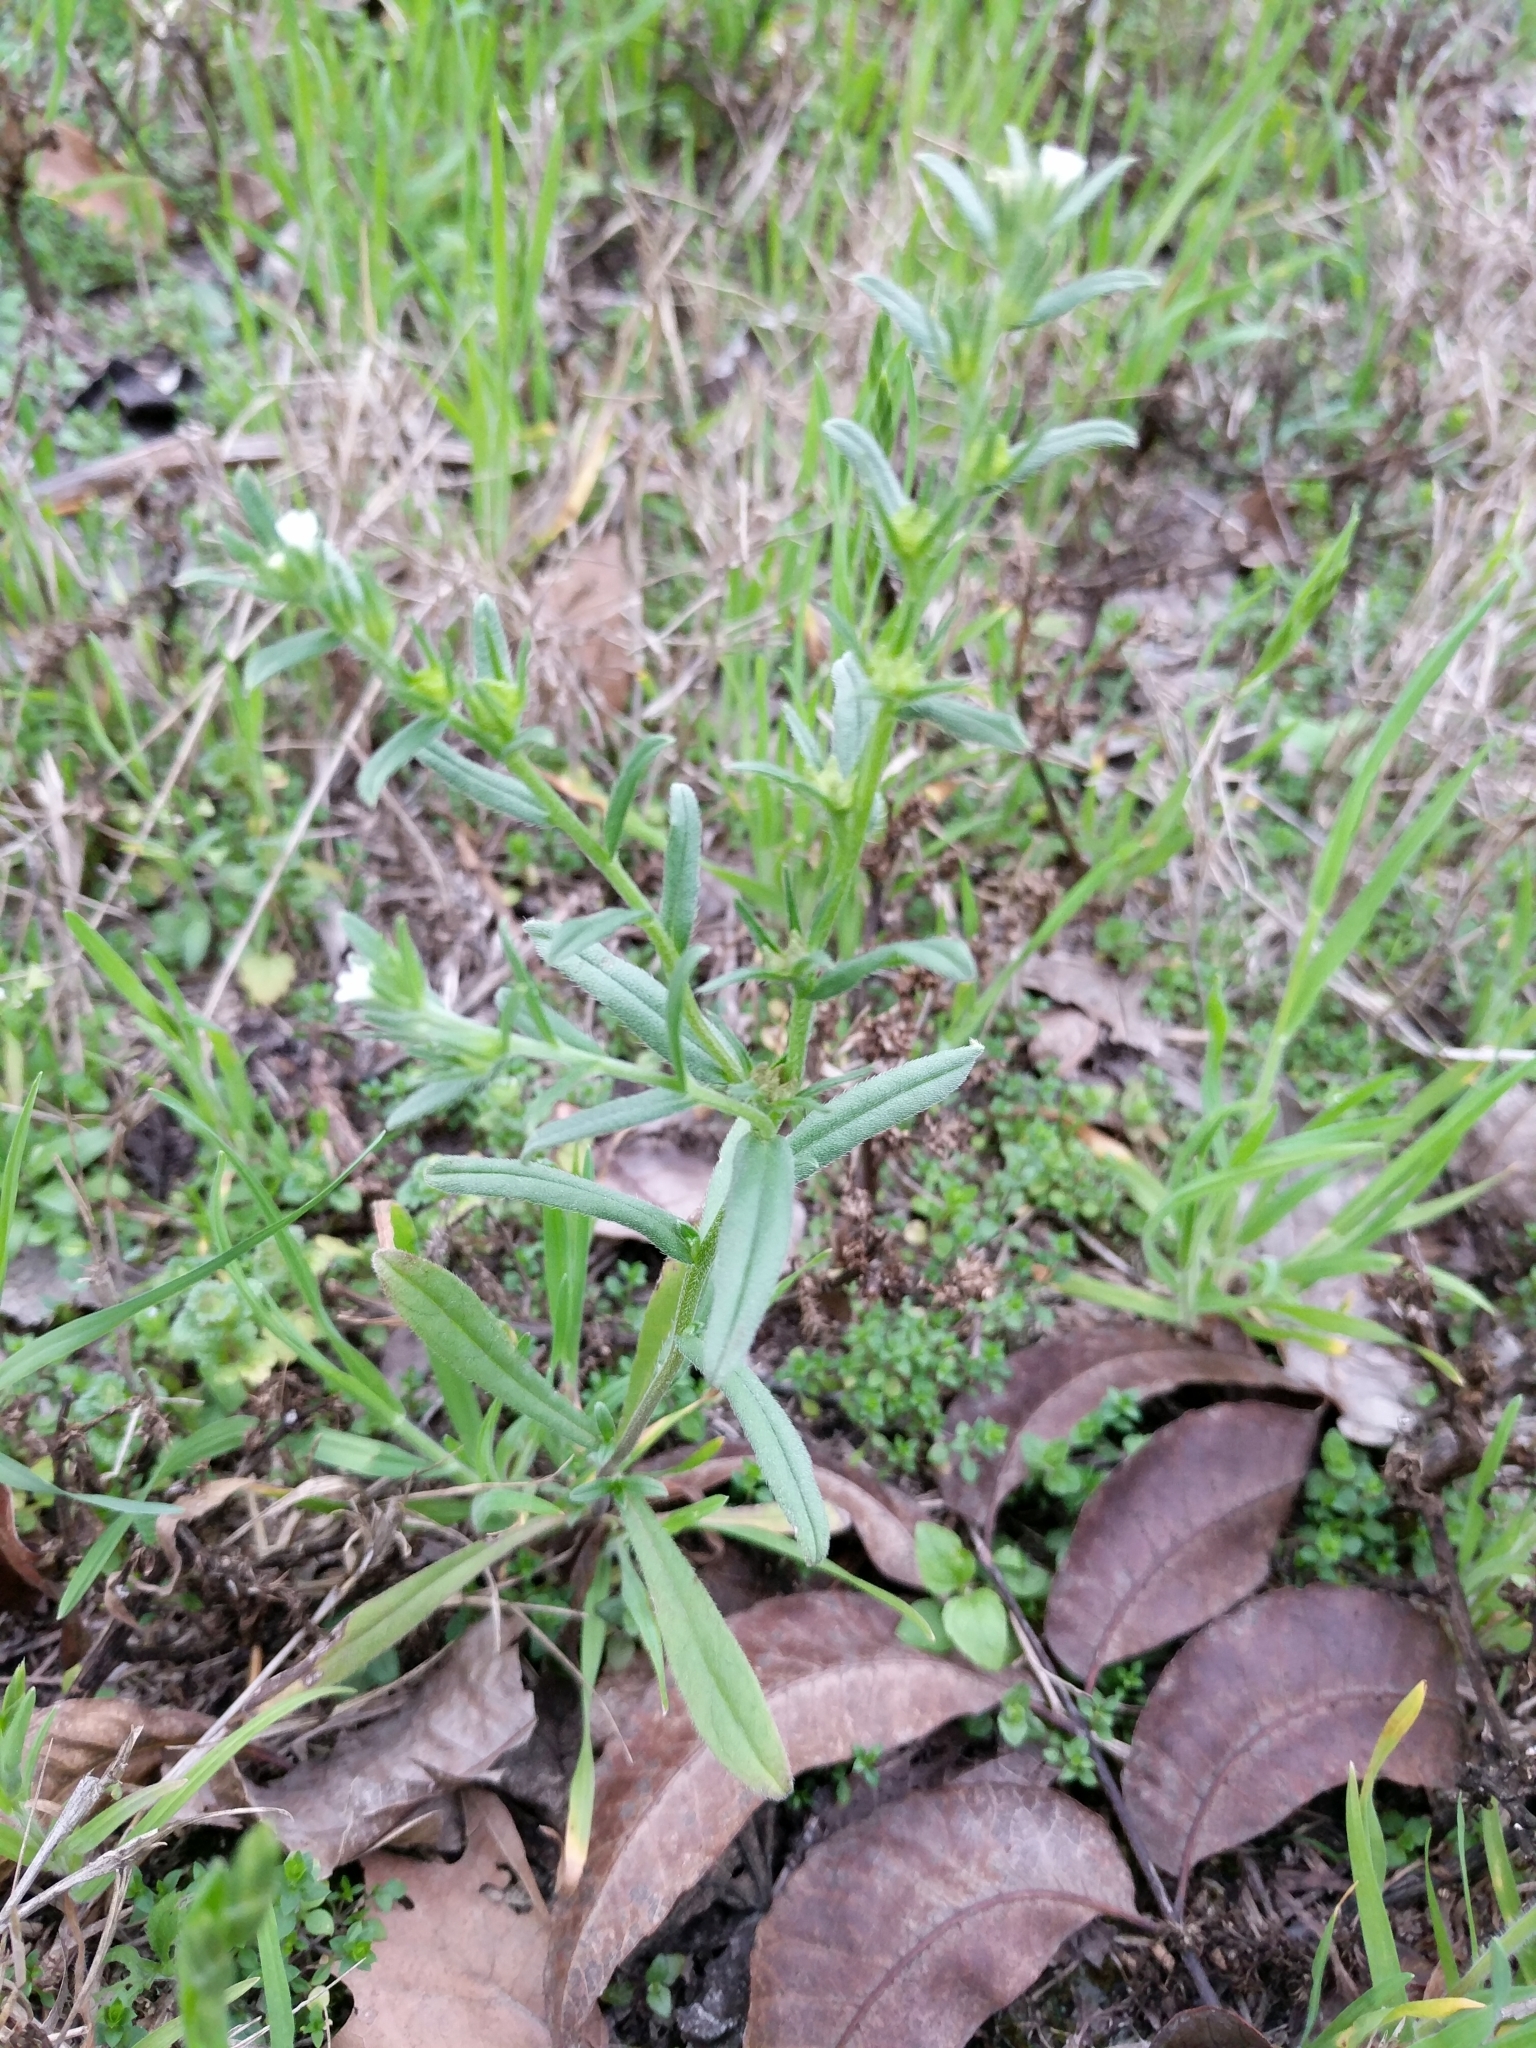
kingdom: Plantae
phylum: Tracheophyta
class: Magnoliopsida
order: Boraginales
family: Boraginaceae
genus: Buglossoides
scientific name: Buglossoides arvensis
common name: Corn gromwell
